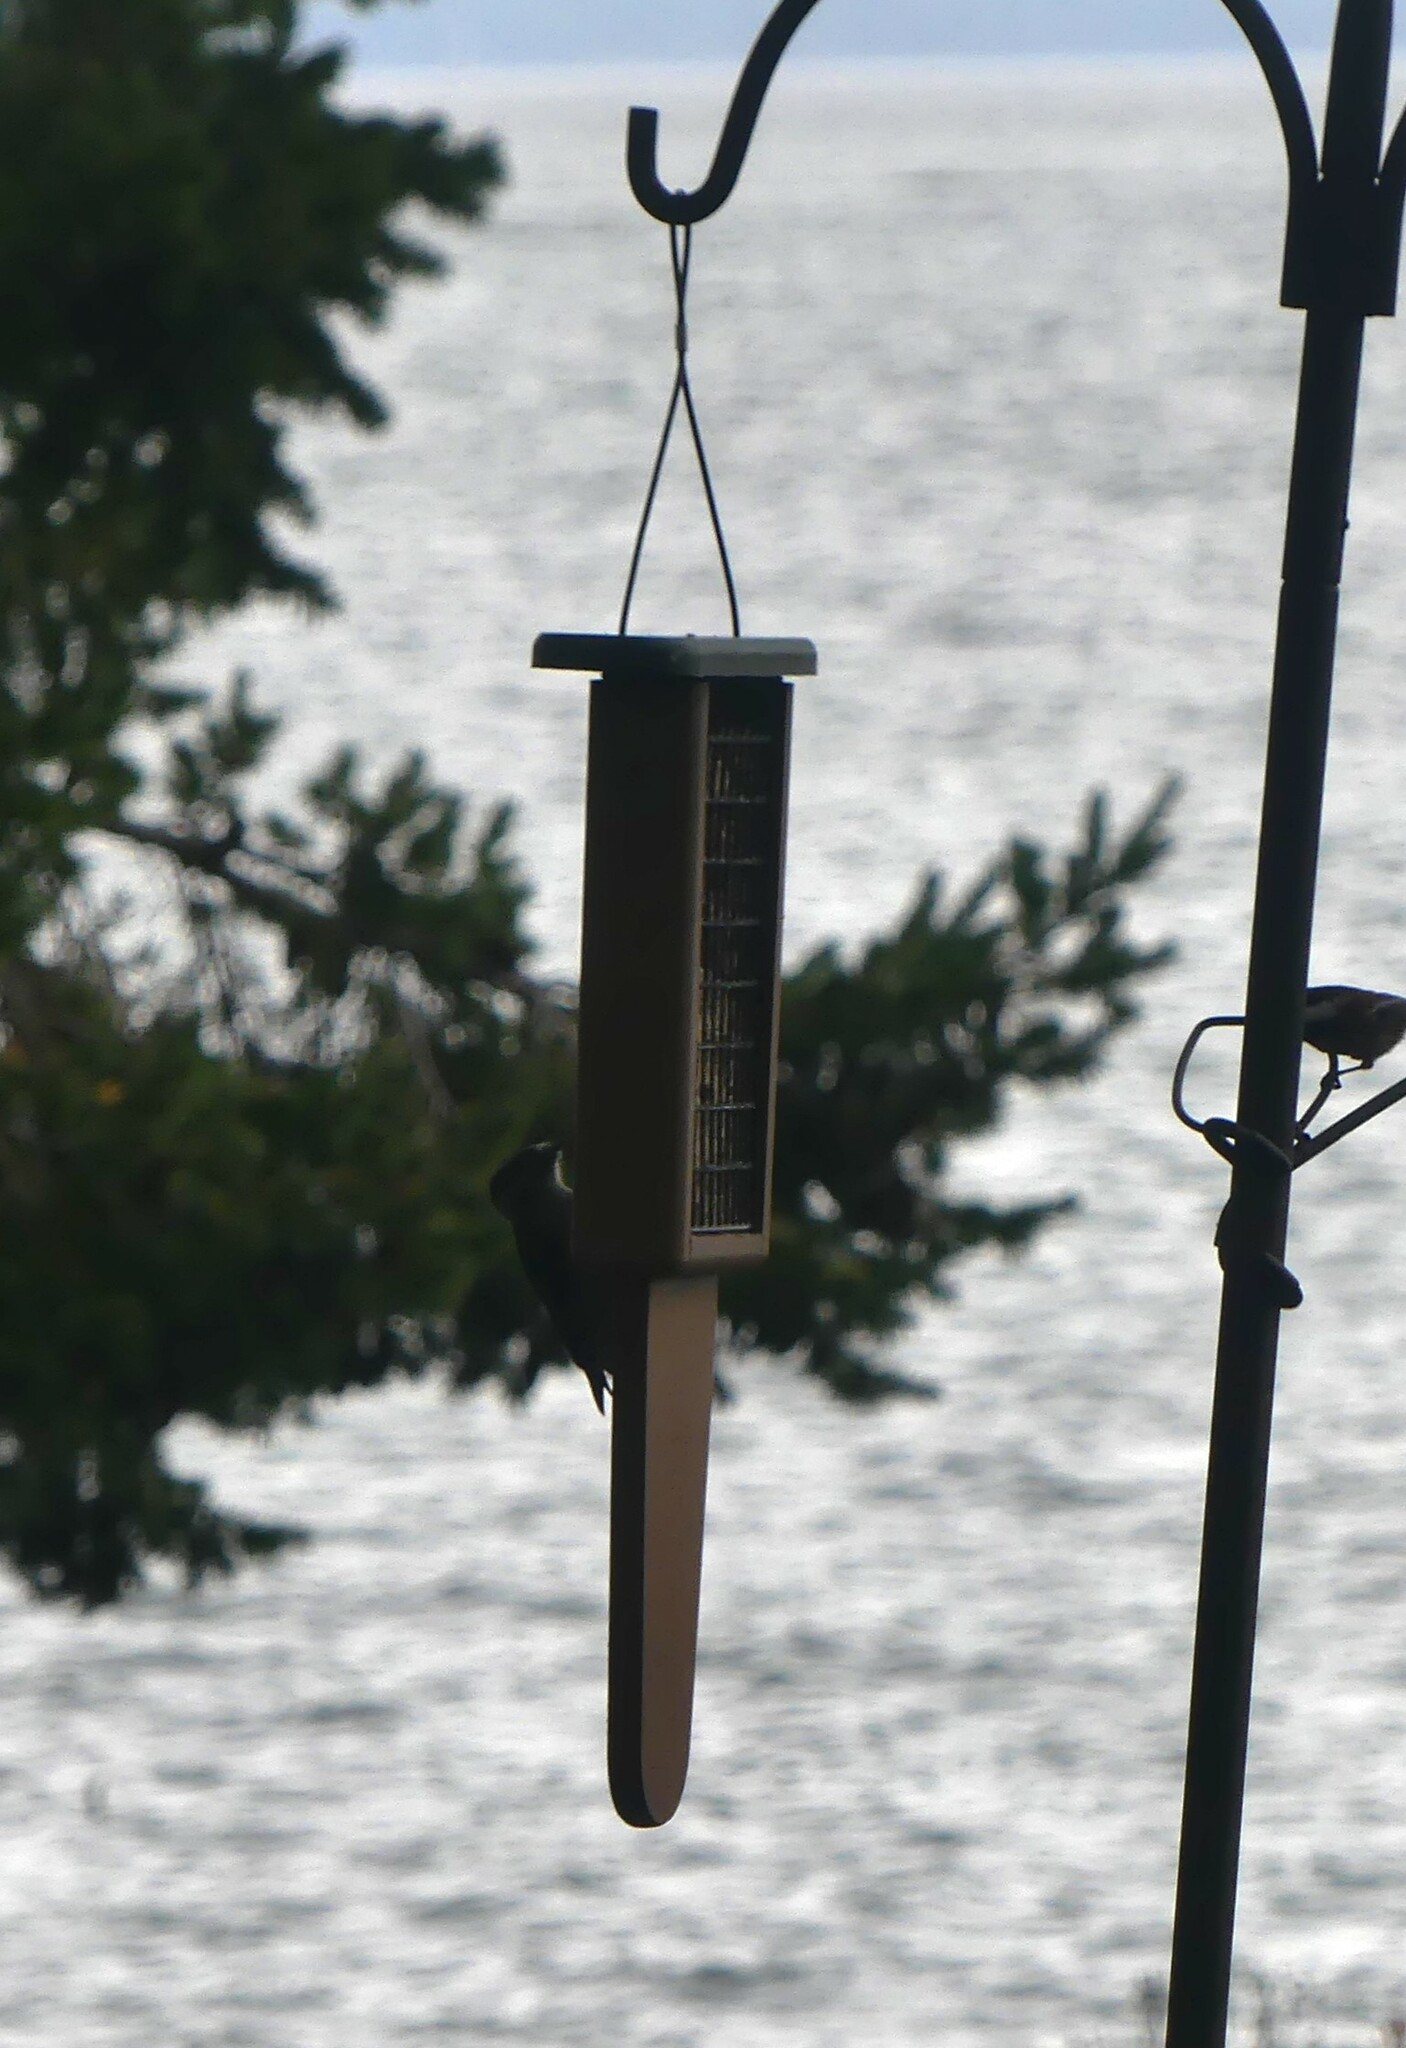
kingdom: Animalia
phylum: Chordata
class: Aves
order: Piciformes
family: Picidae
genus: Dryobates
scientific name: Dryobates pubescens
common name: Downy woodpecker
